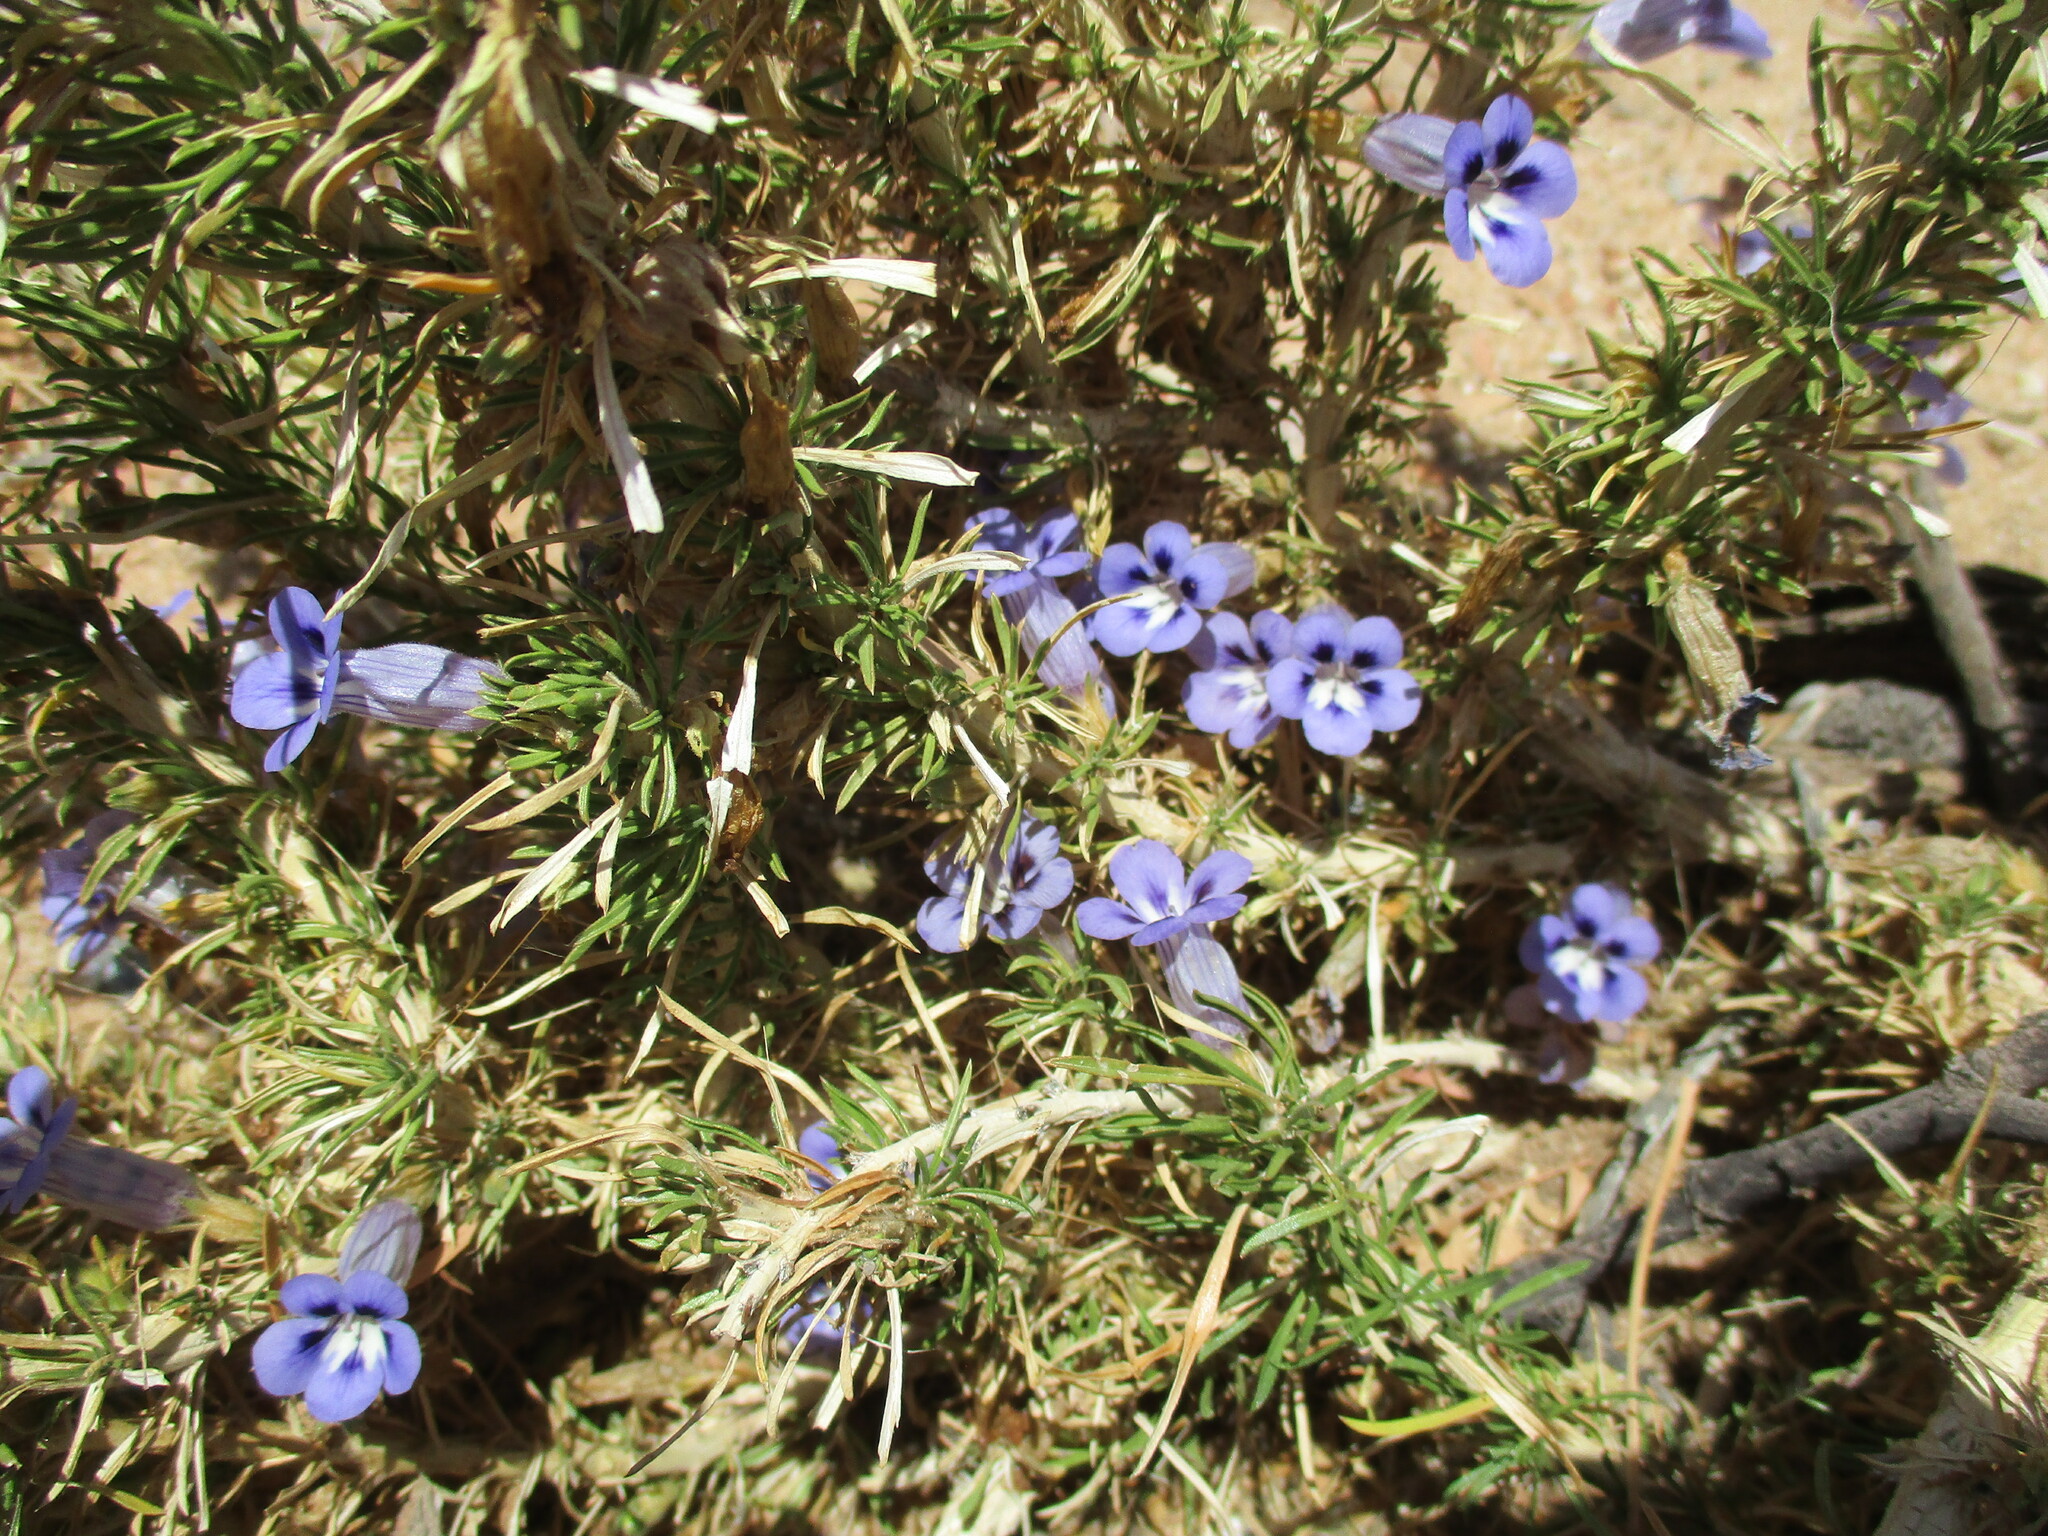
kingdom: Plantae
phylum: Tracheophyta
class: Magnoliopsida
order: Lamiales
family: Scrophulariaceae
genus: Aptosimum
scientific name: Aptosimum spinescens
